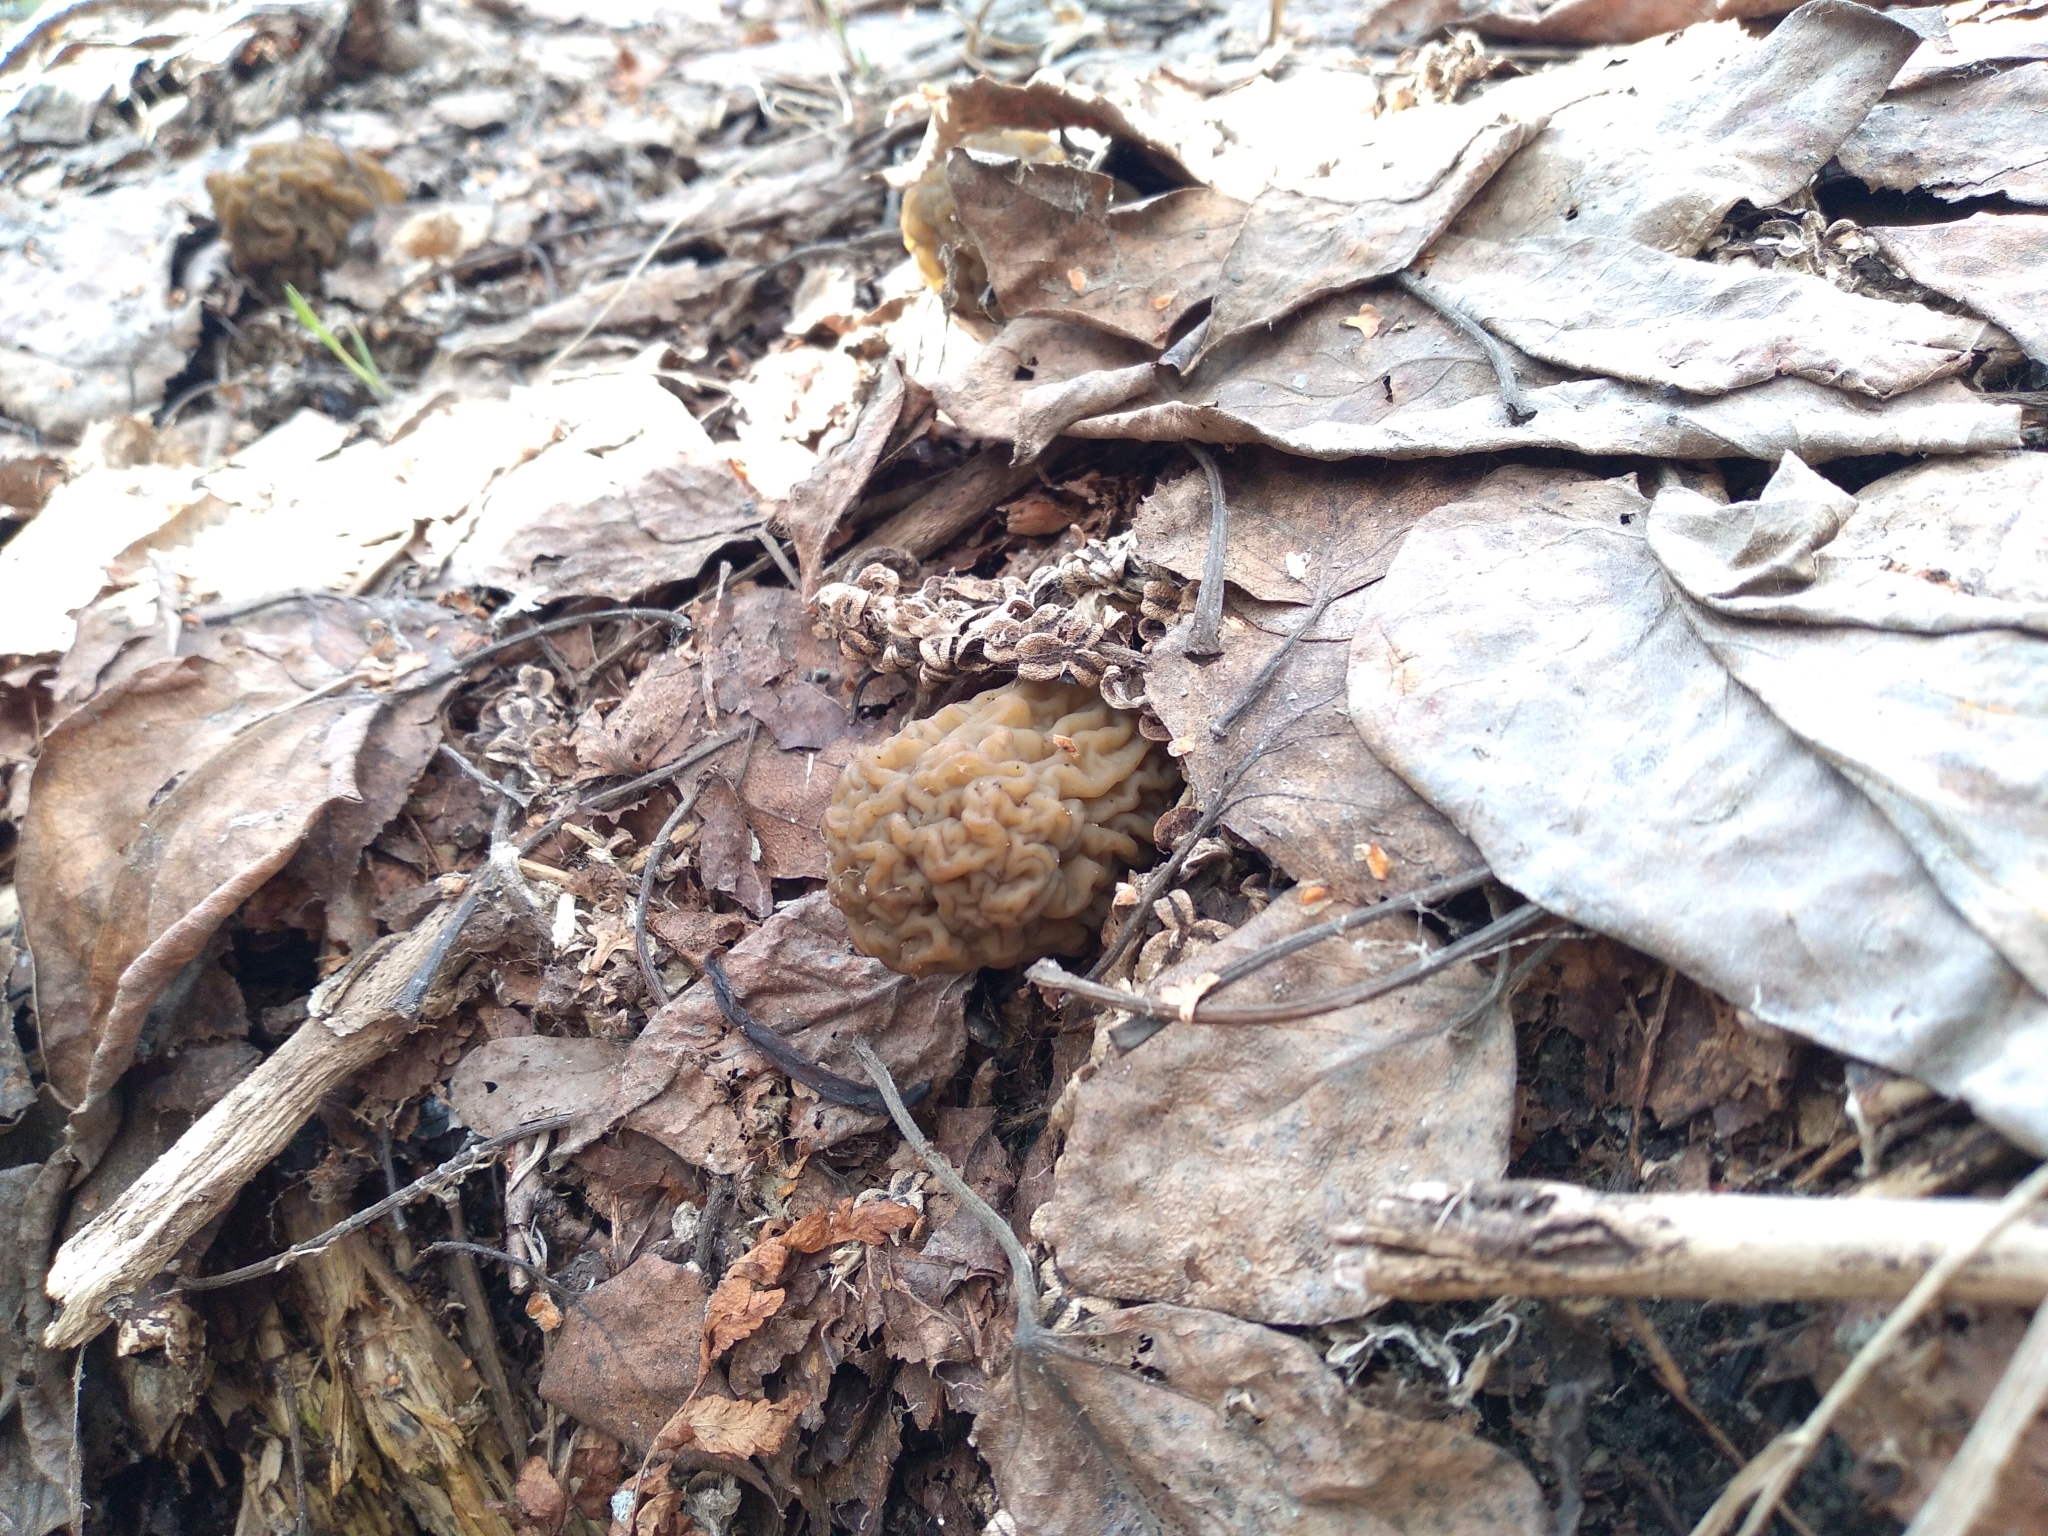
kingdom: Fungi
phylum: Ascomycota
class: Pezizomycetes
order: Pezizales
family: Morchellaceae
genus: Verpa
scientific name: Verpa bohemica
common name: Wrinkled thimble morel
